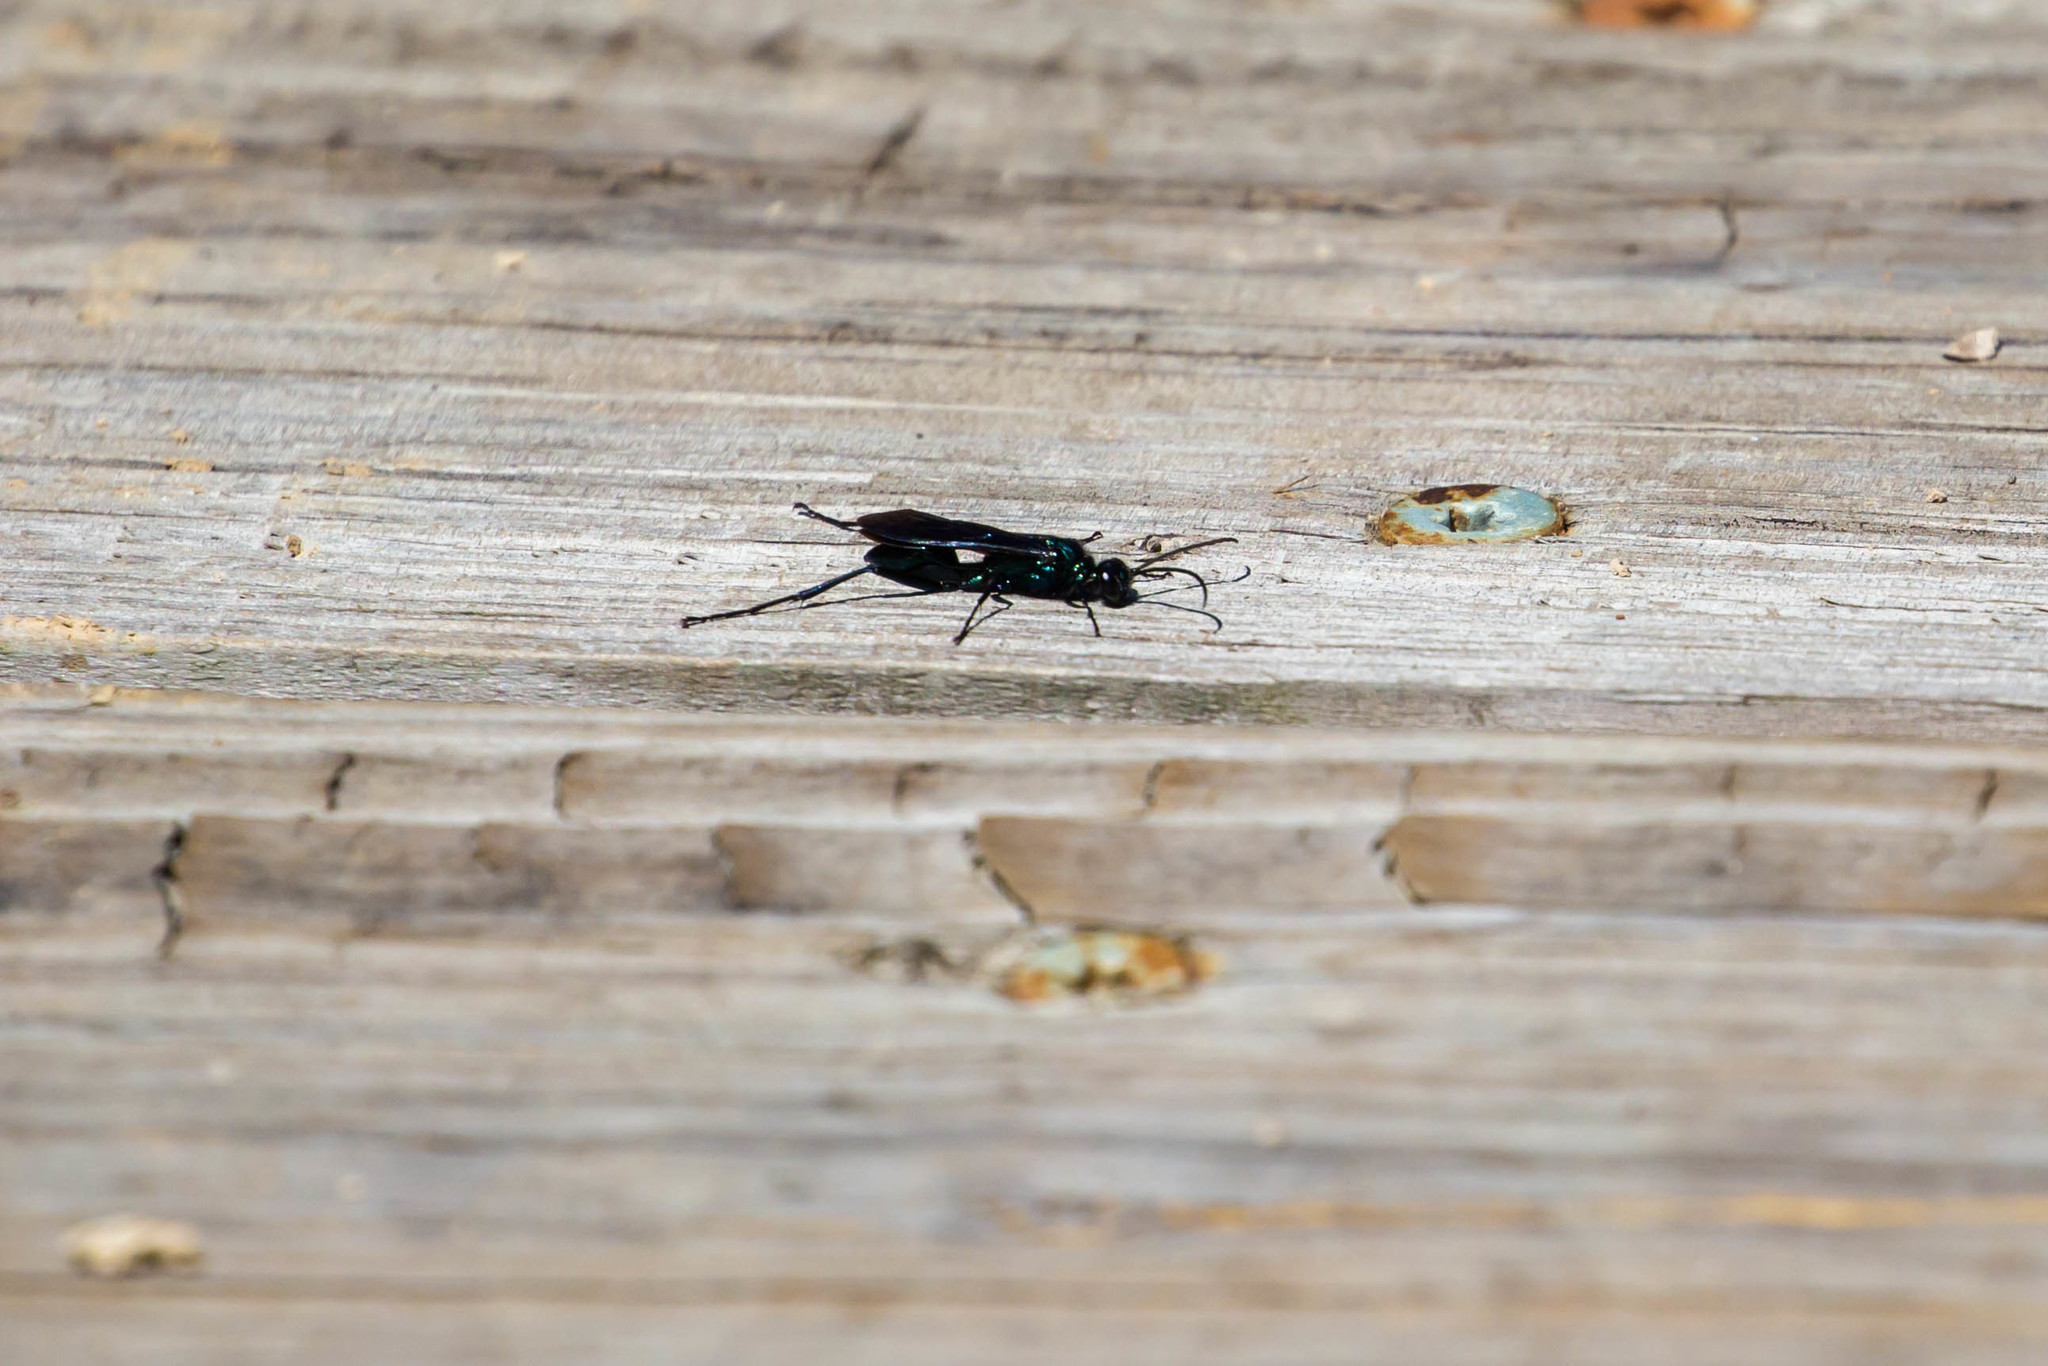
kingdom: Animalia
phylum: Arthropoda
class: Insecta
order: Hymenoptera
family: Sphecidae
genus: Chalybion
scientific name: Chalybion californicum
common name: Mud dauber
